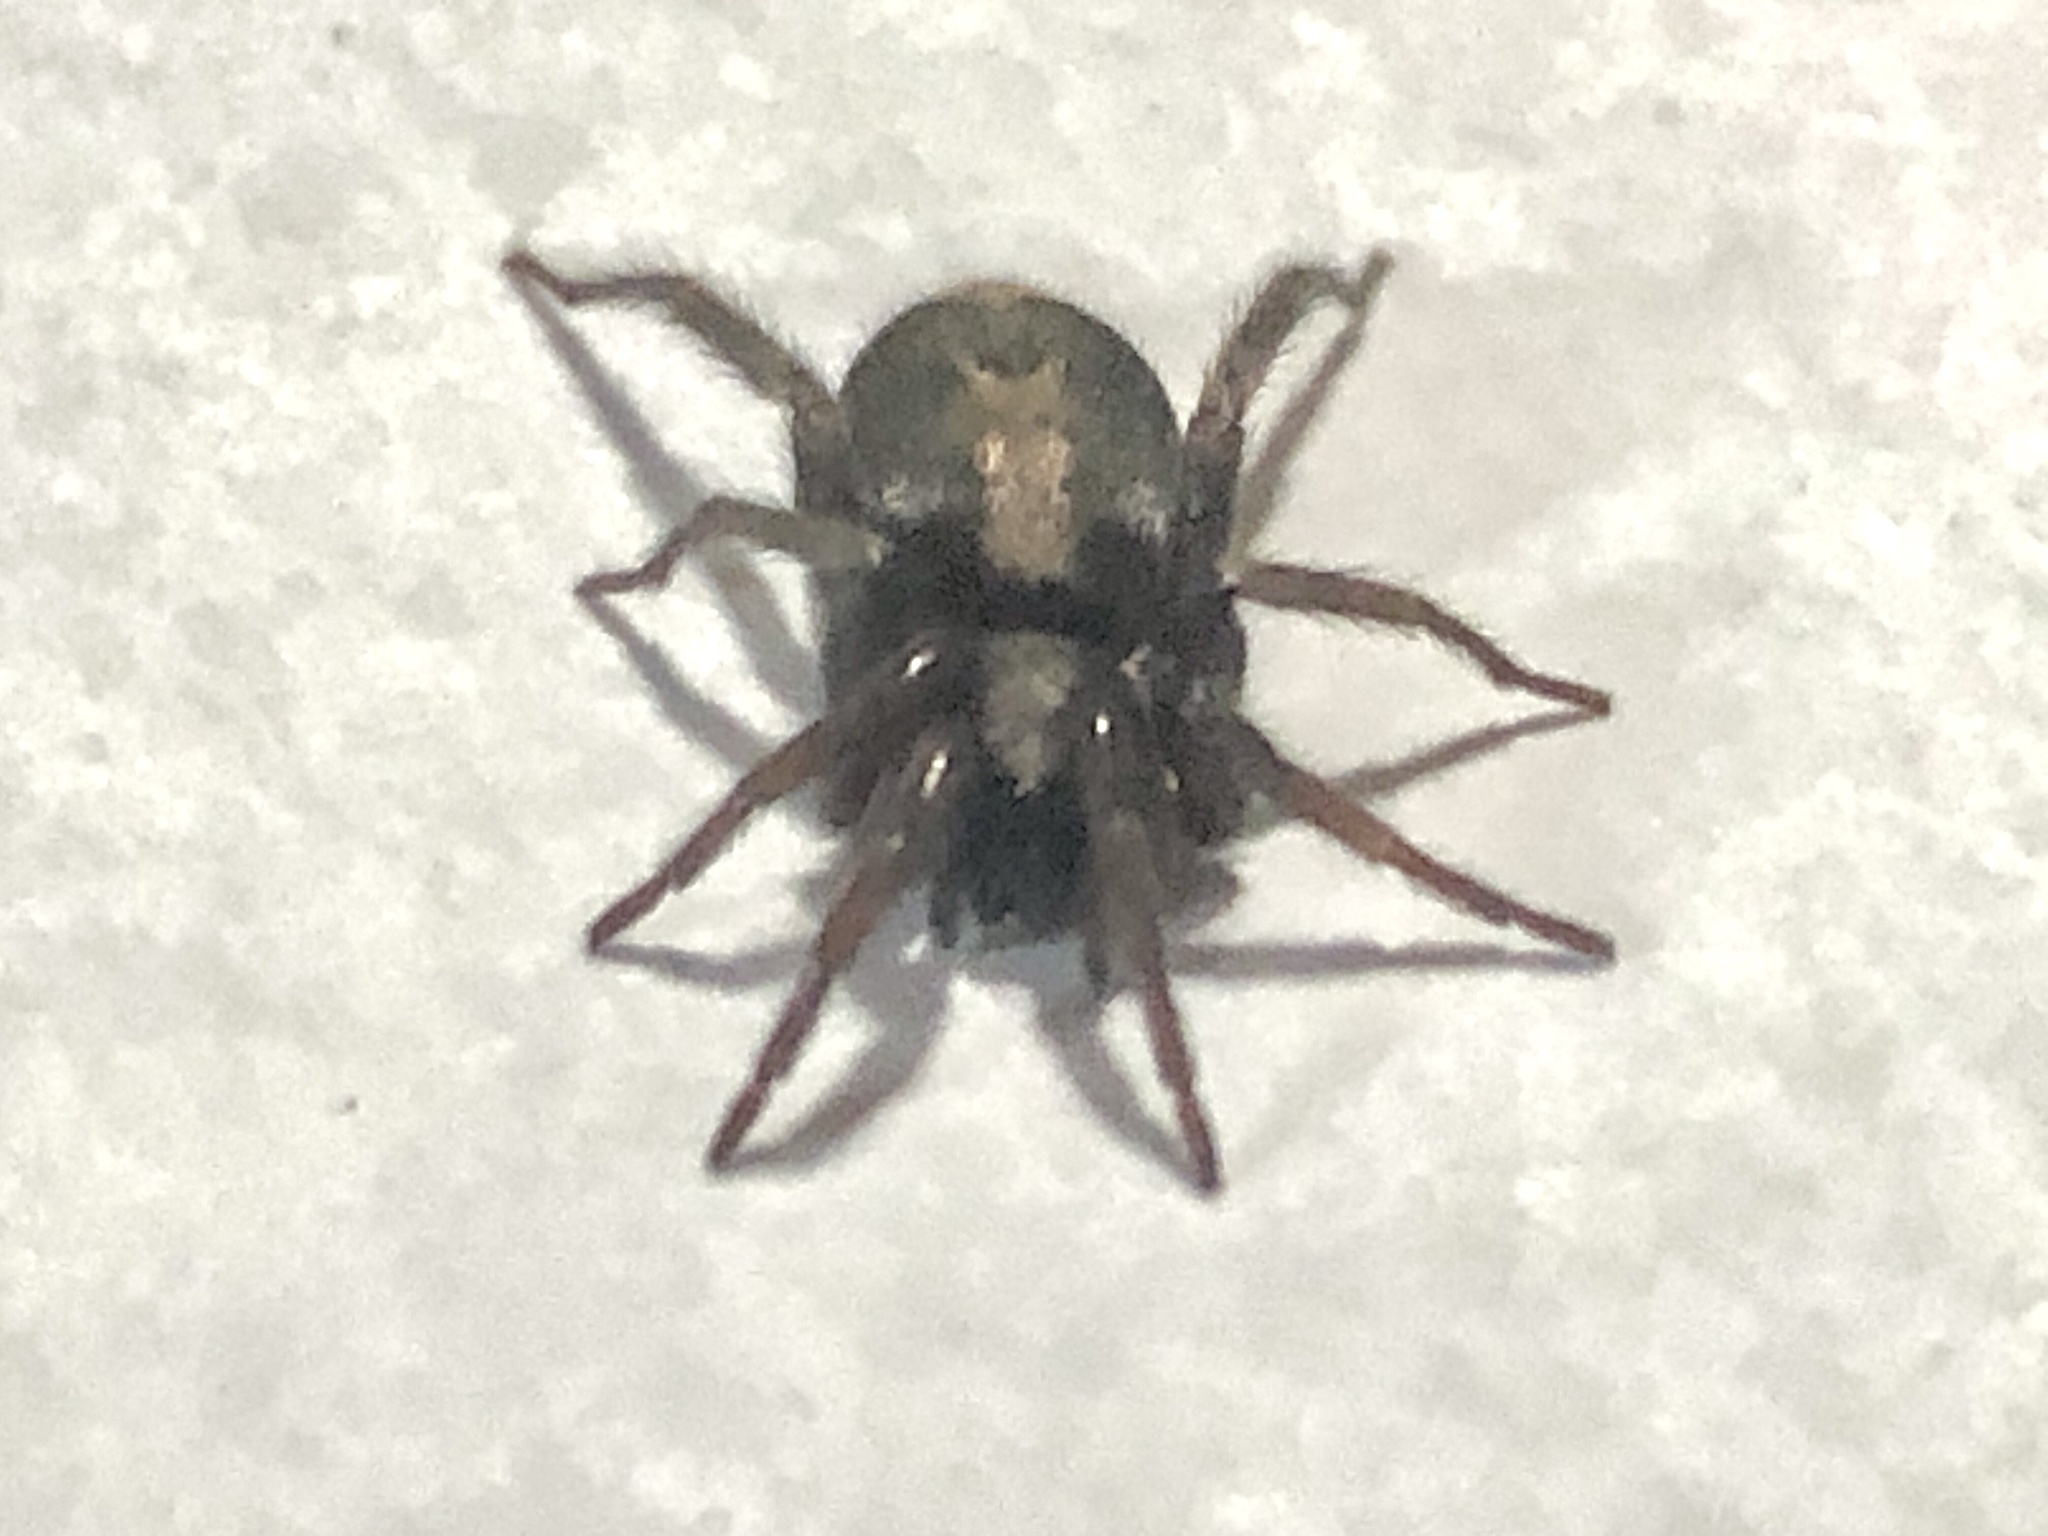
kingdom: Animalia
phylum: Arthropoda
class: Arachnida
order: Araneae
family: Gnaphosidae
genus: Herpyllus
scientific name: Herpyllus ecclesiasticus
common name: Eastern parson spider
